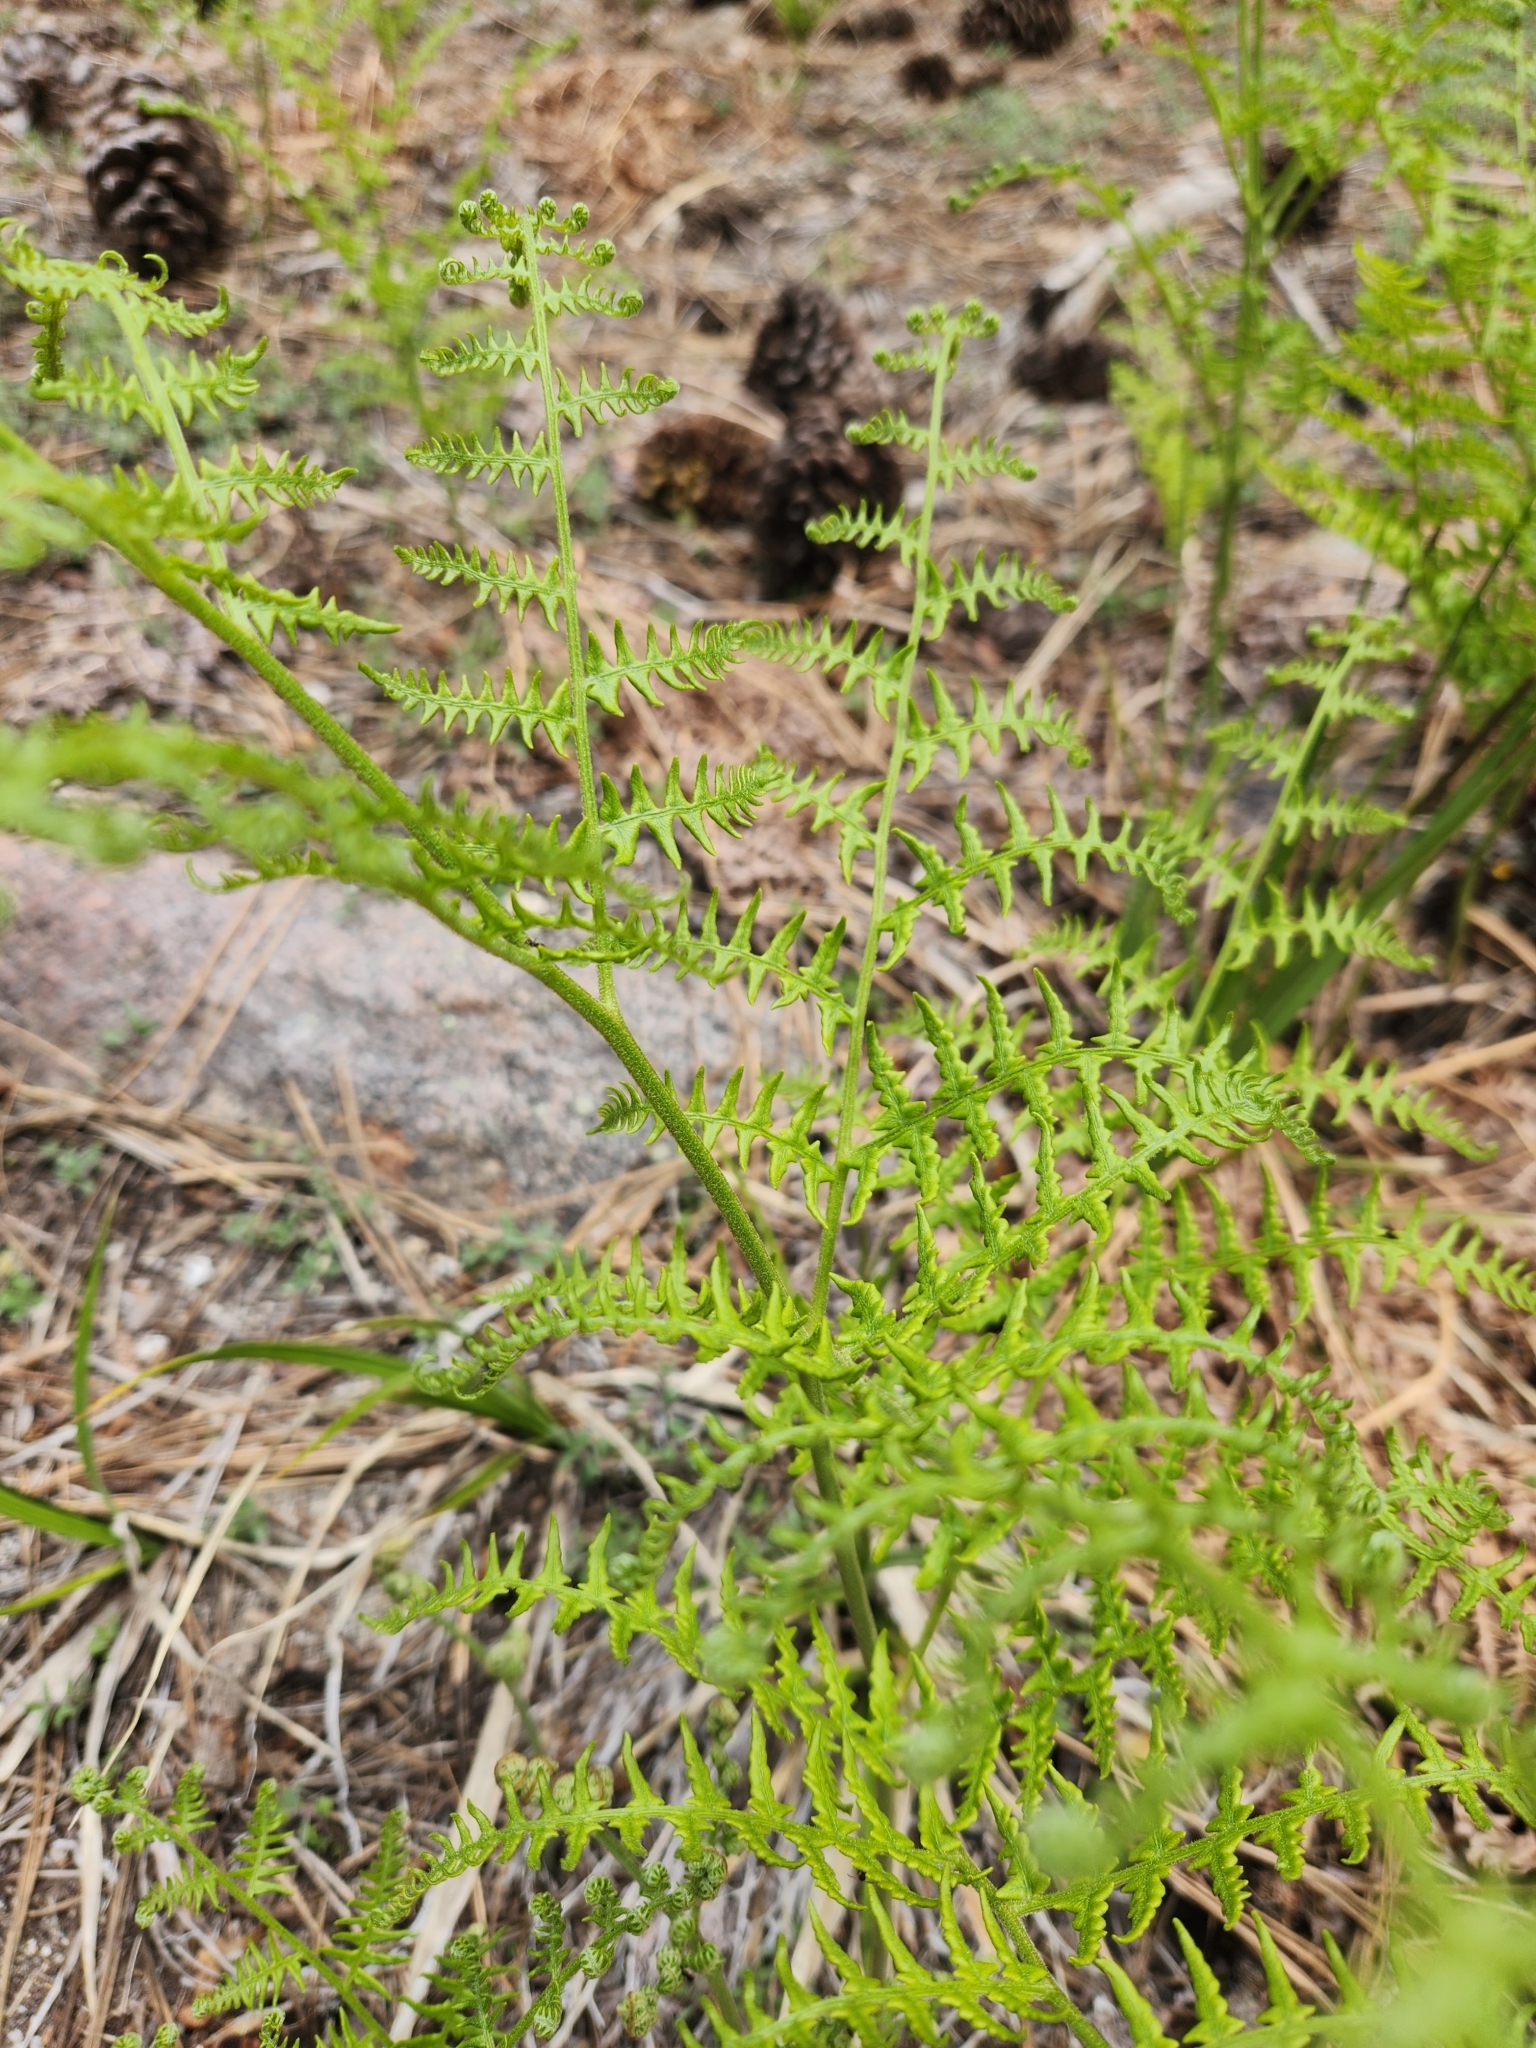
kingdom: Plantae
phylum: Tracheophyta
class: Polypodiopsida
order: Polypodiales
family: Dennstaedtiaceae
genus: Pteridium
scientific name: Pteridium aquilinum
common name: Bracken
